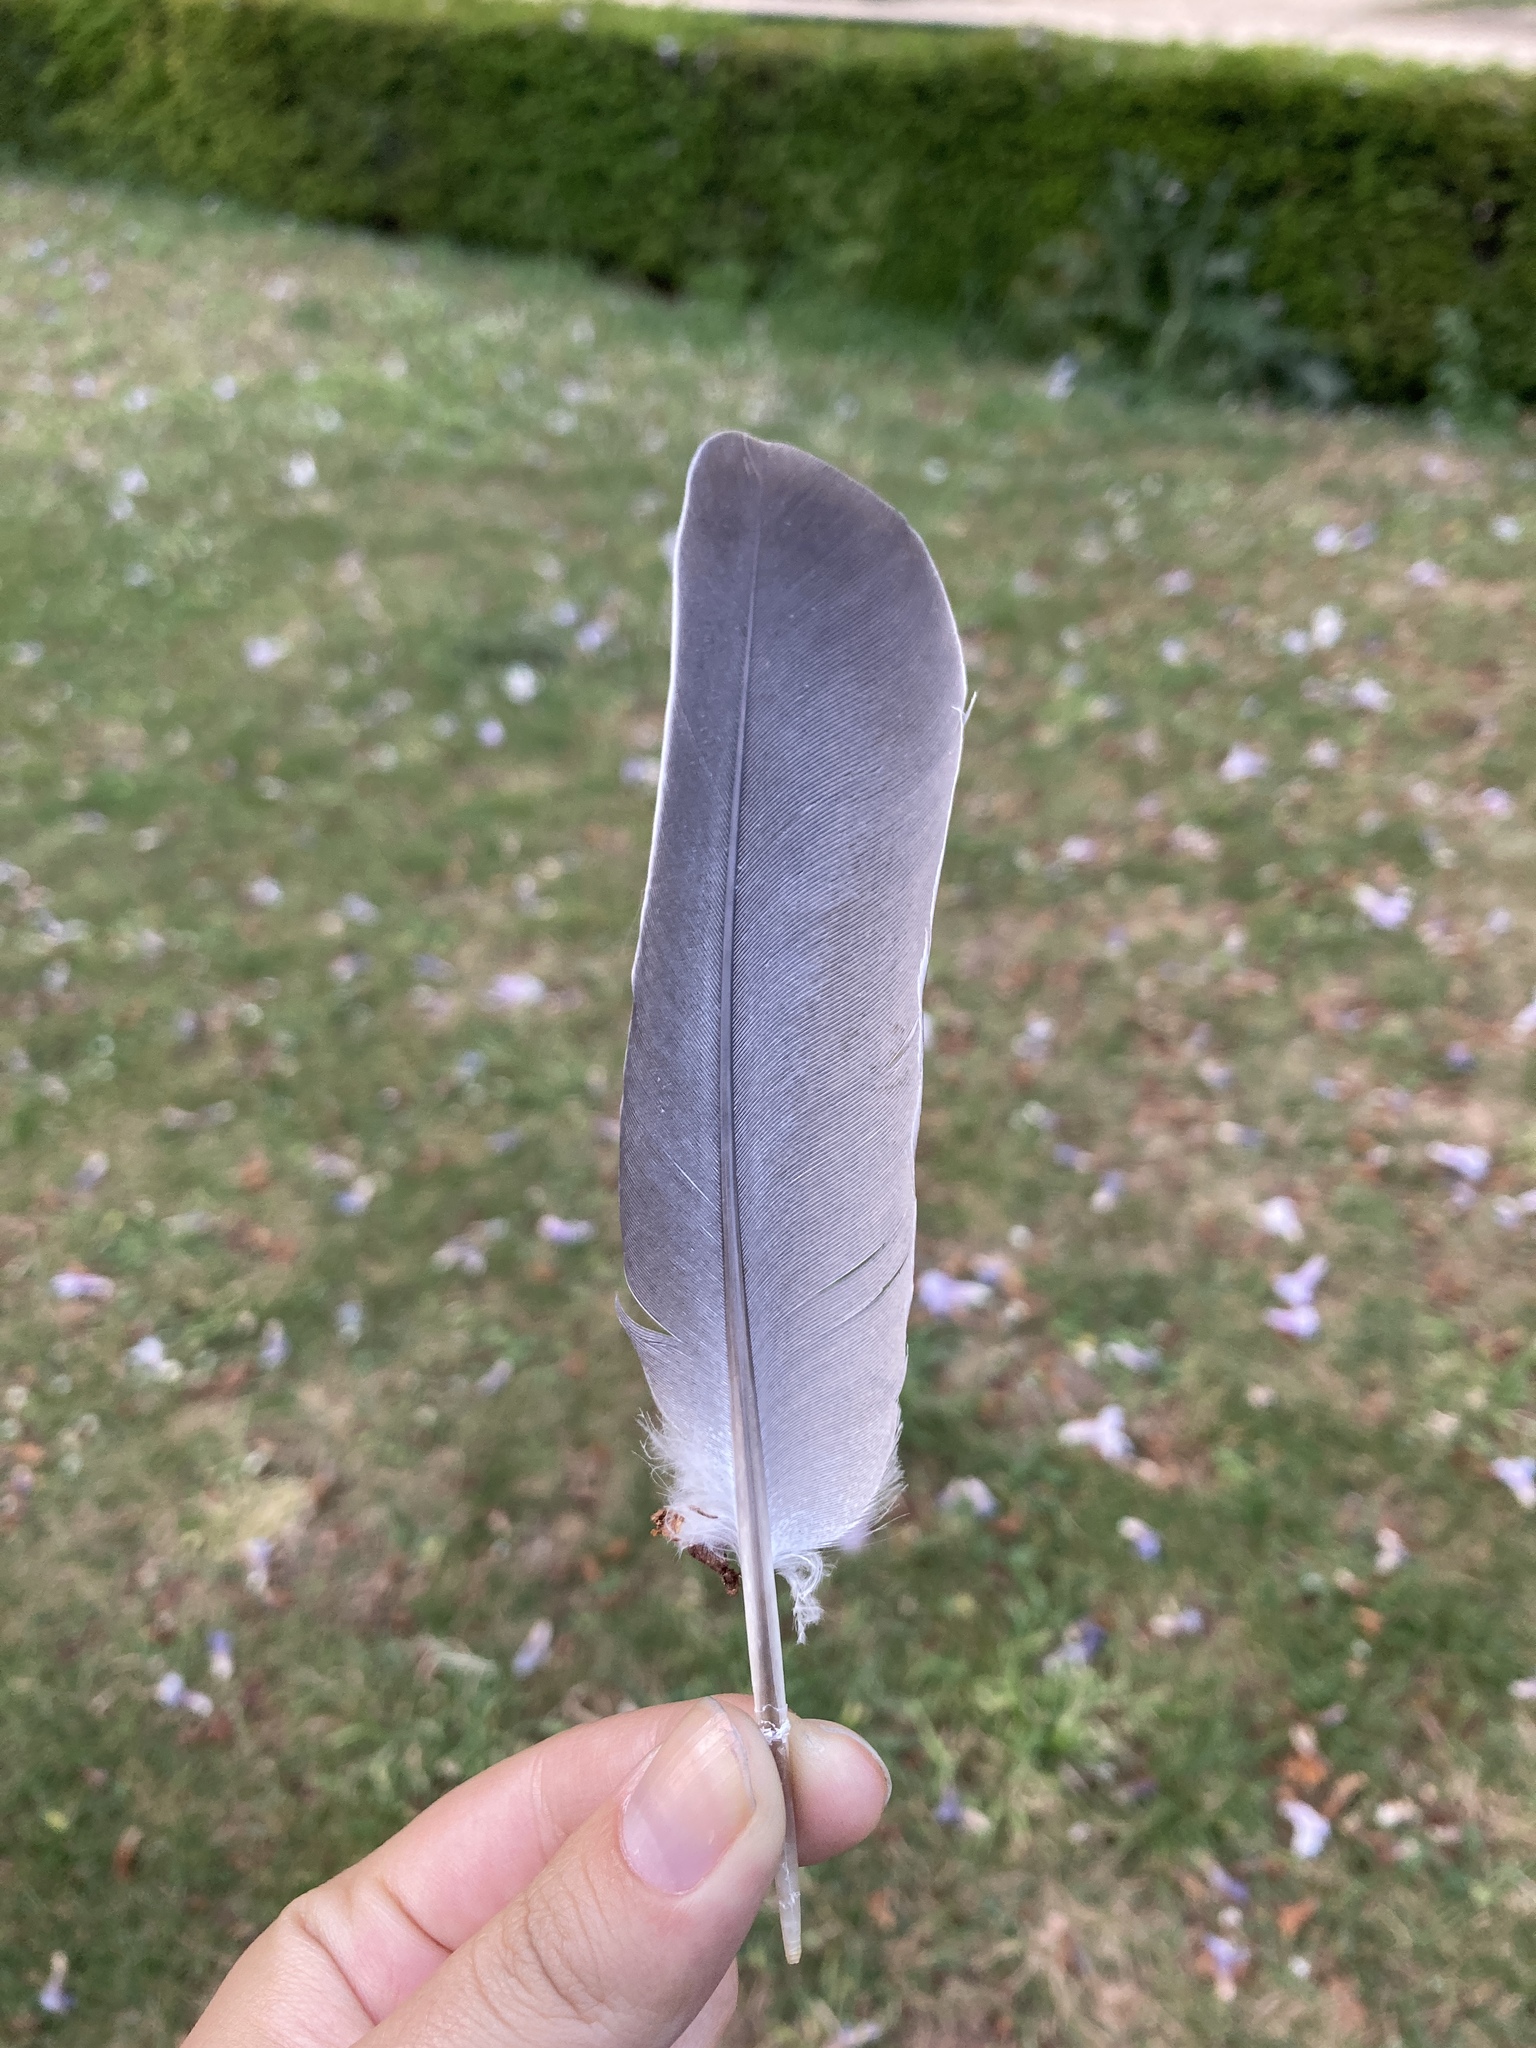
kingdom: Animalia
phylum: Chordata
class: Aves
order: Columbiformes
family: Columbidae
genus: Columba
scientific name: Columba palumbus
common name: Common wood pigeon
